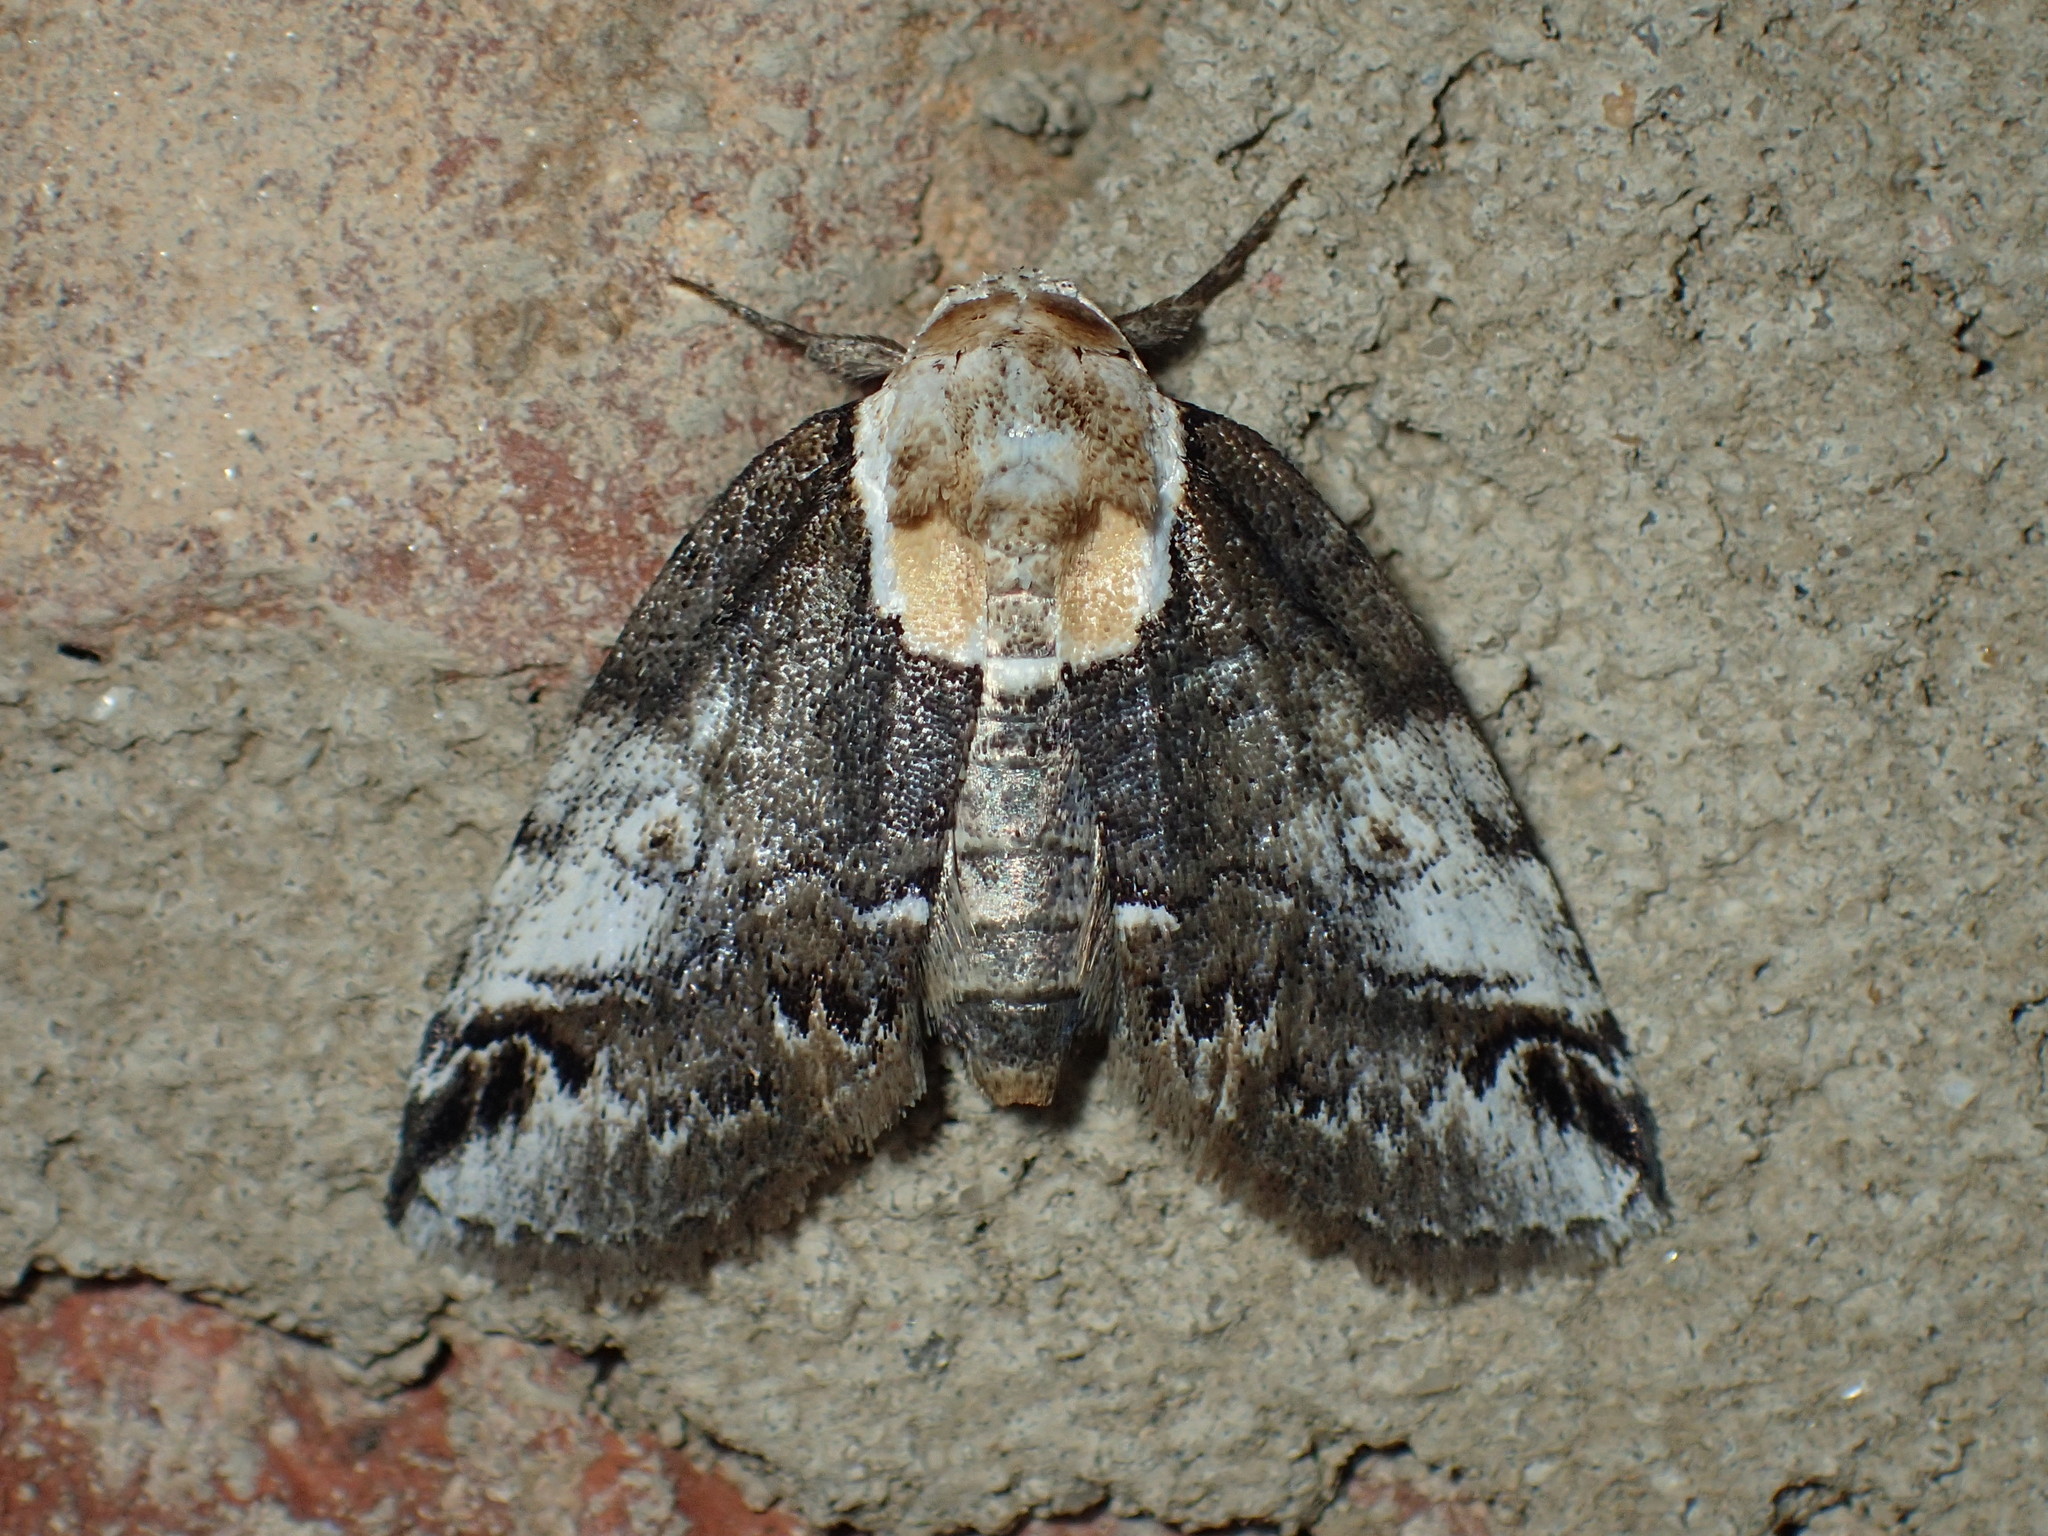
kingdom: Animalia
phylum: Arthropoda
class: Insecta
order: Lepidoptera
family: Nolidae
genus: Baileya
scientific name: Baileya ophthalmica
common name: Eyed baileya moth
